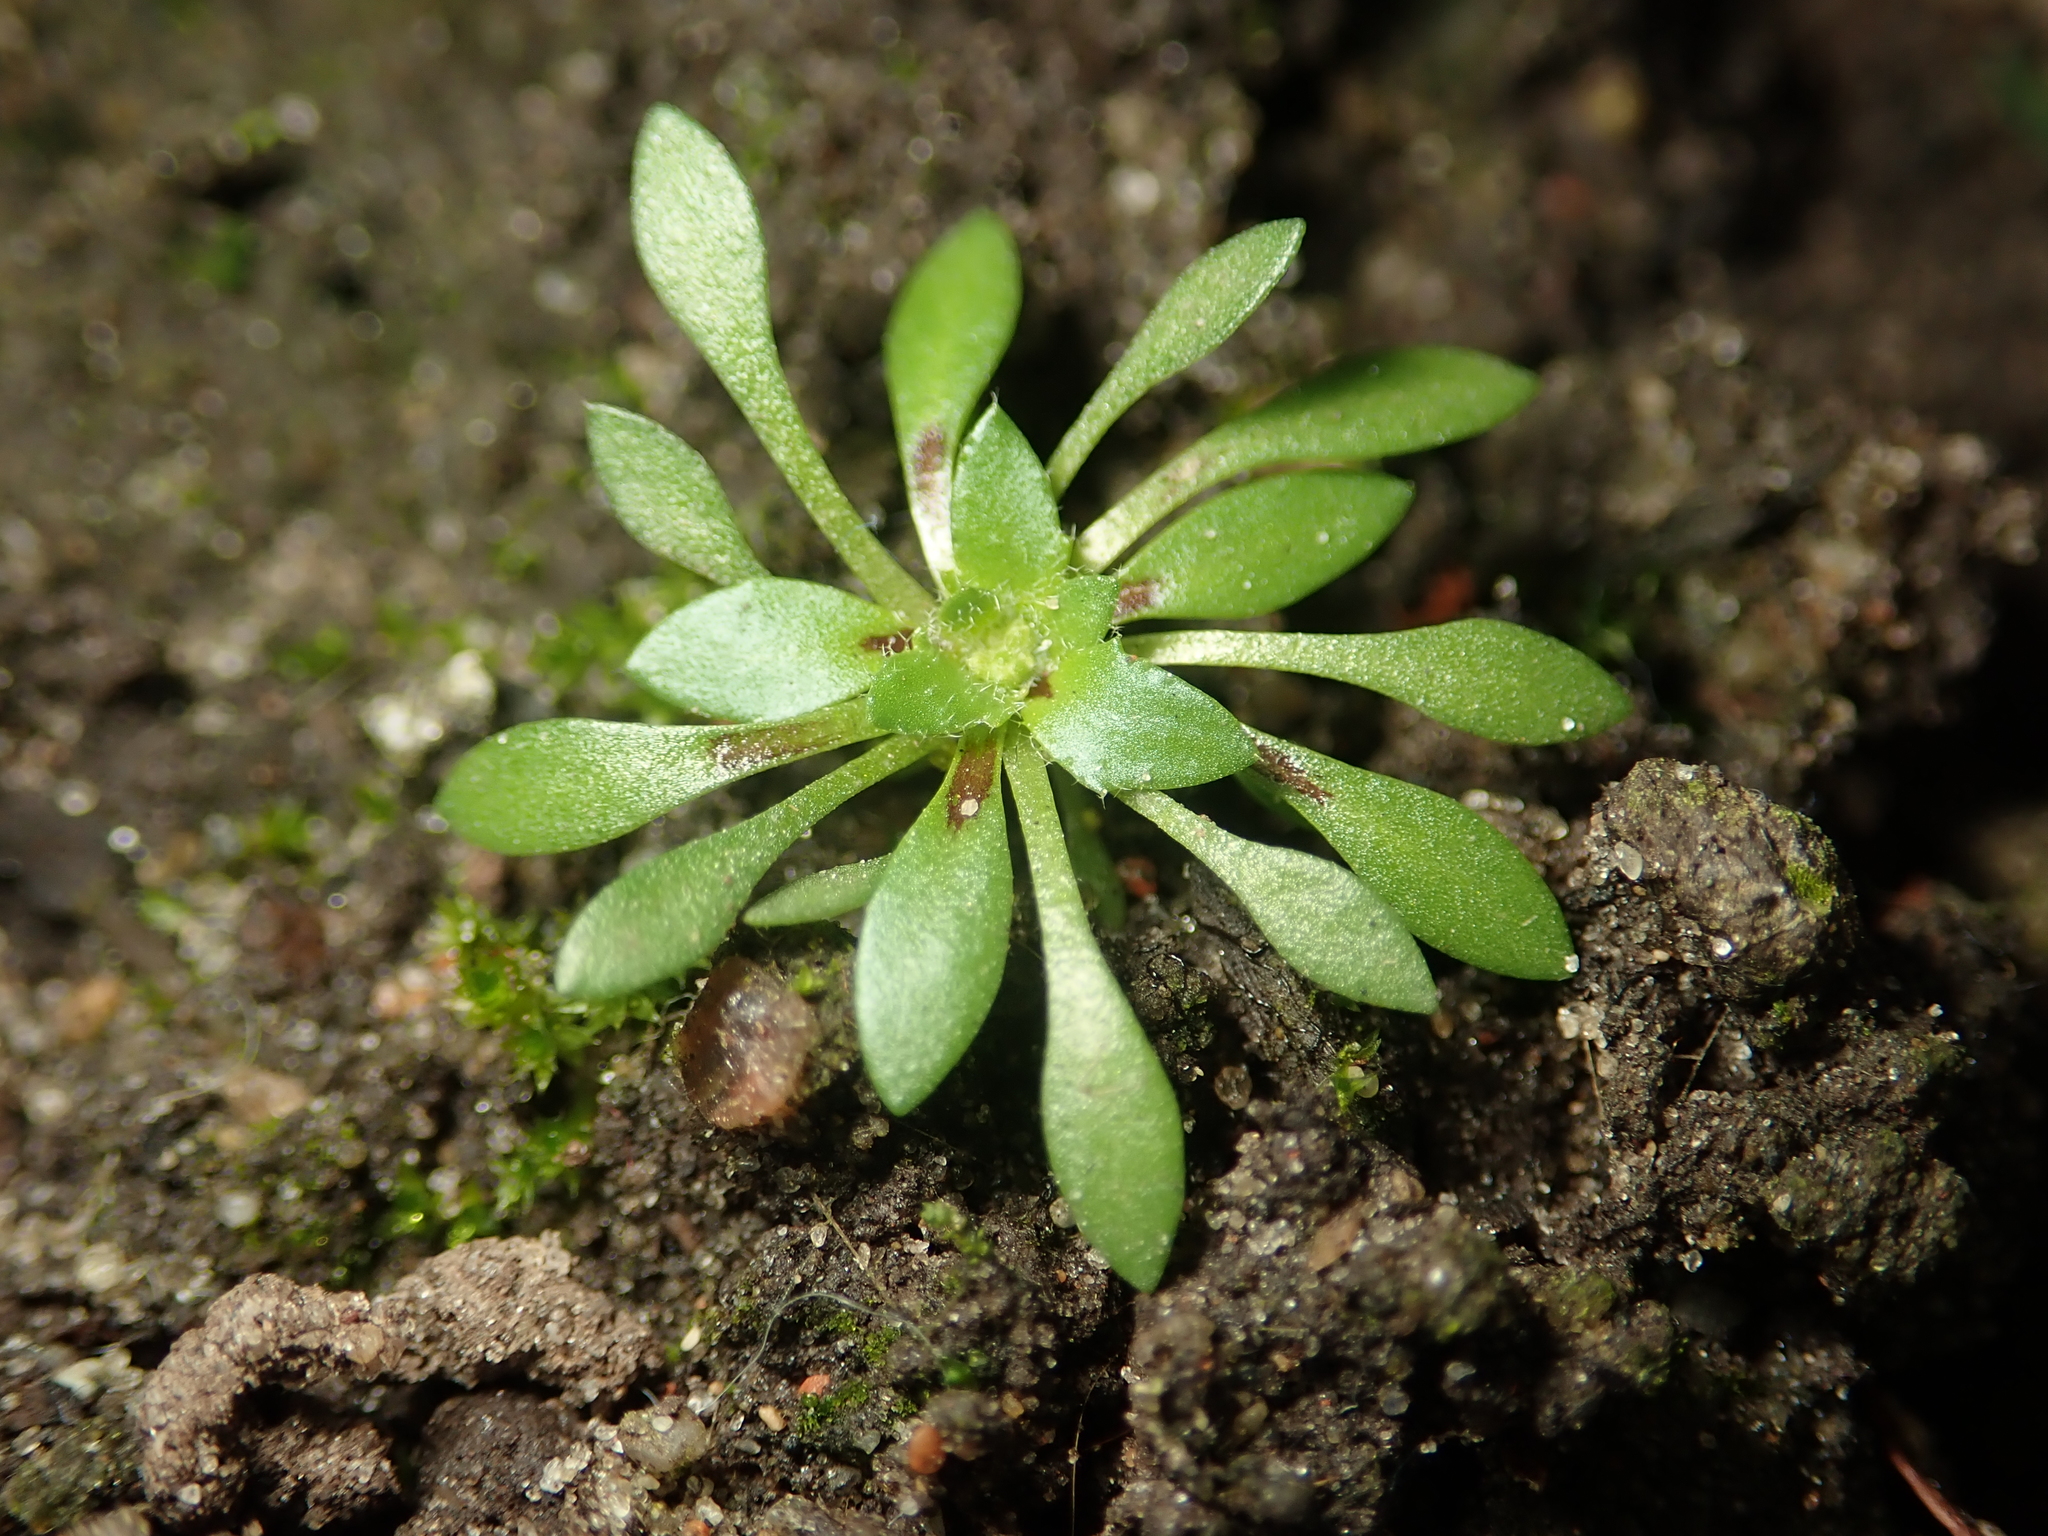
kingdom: Plantae
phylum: Tracheophyta
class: Magnoliopsida
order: Brassicales
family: Brassicaceae
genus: Draba
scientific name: Draba verna
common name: Spring draba
